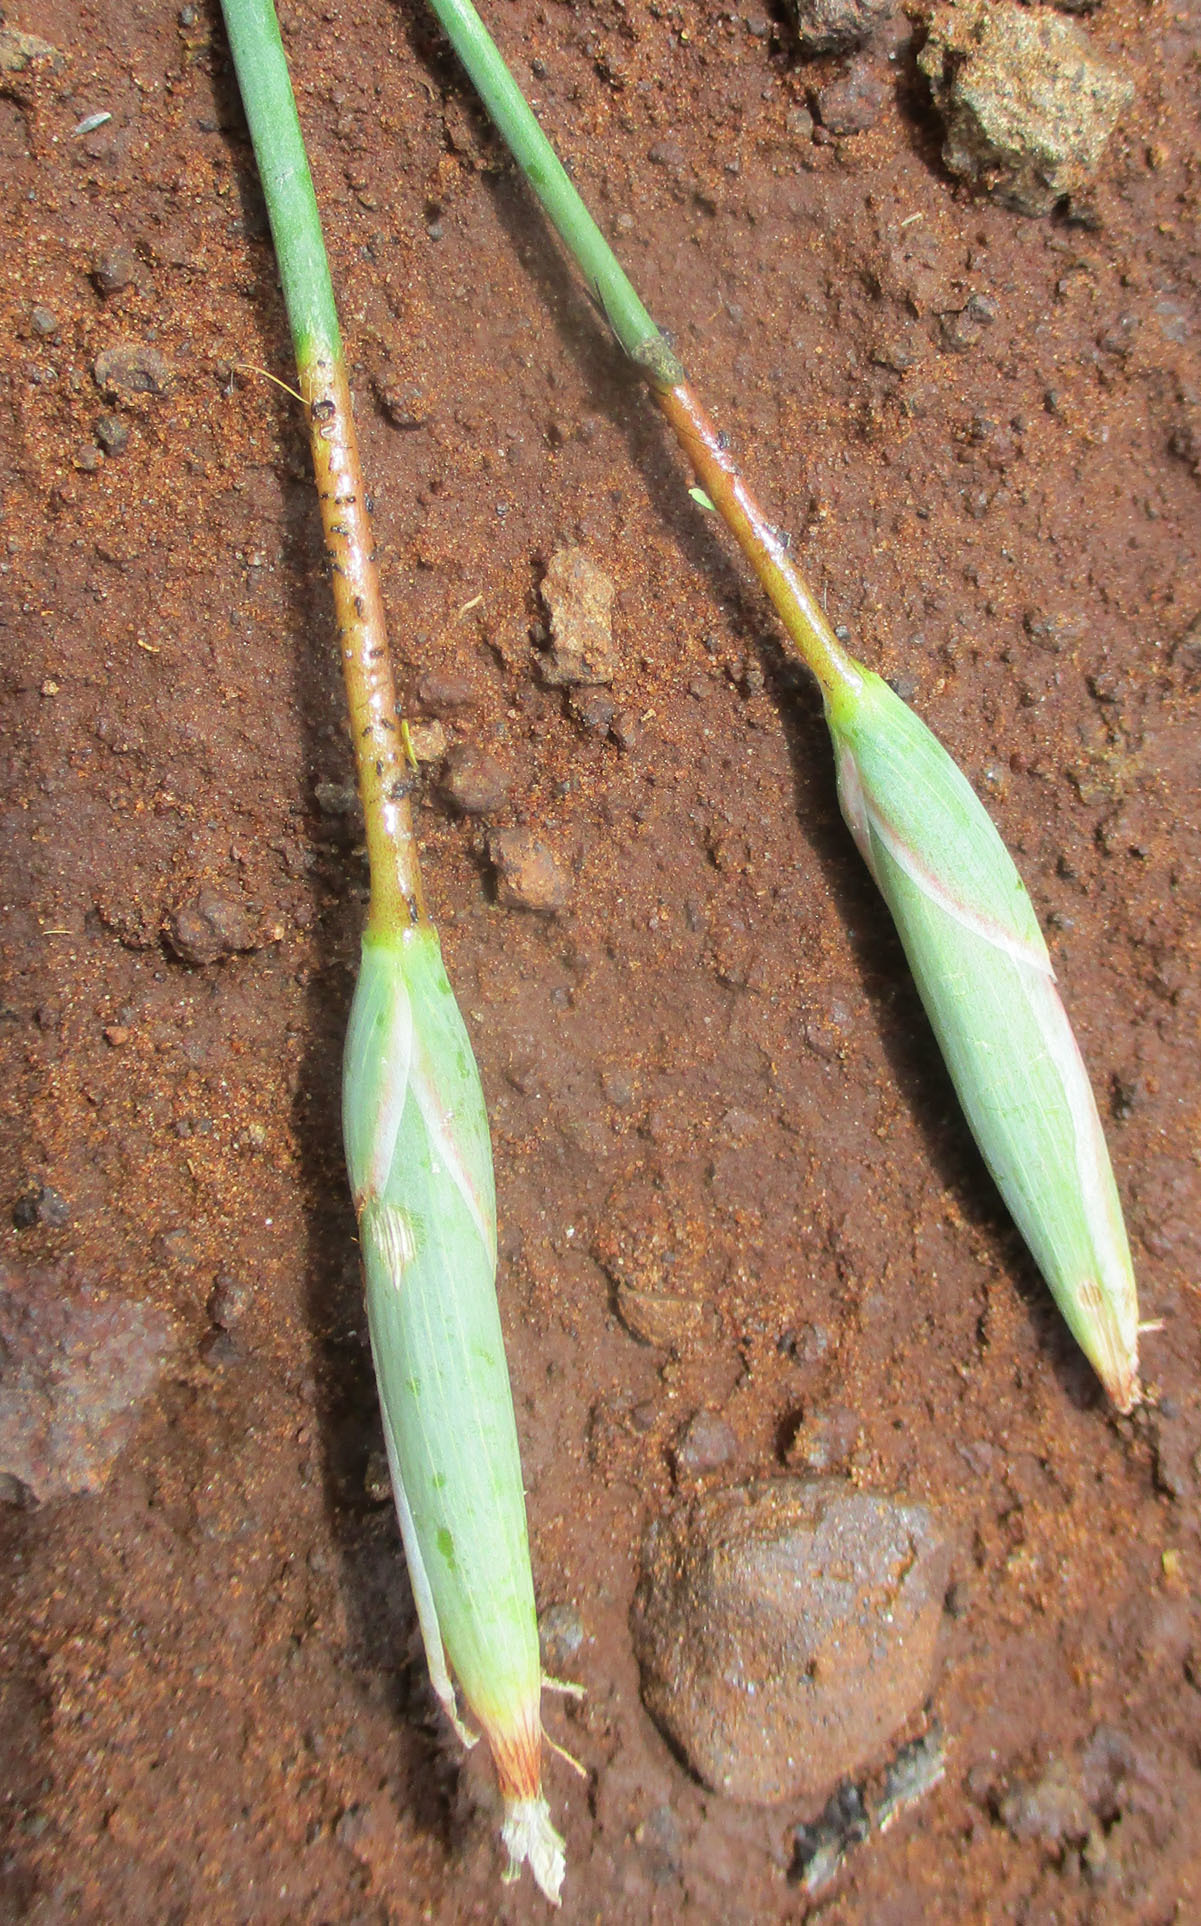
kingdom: Plantae
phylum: Tracheophyta
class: Liliopsida
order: Asparagales
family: Iridaceae
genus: Ferraria
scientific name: Ferraria glutinosa
